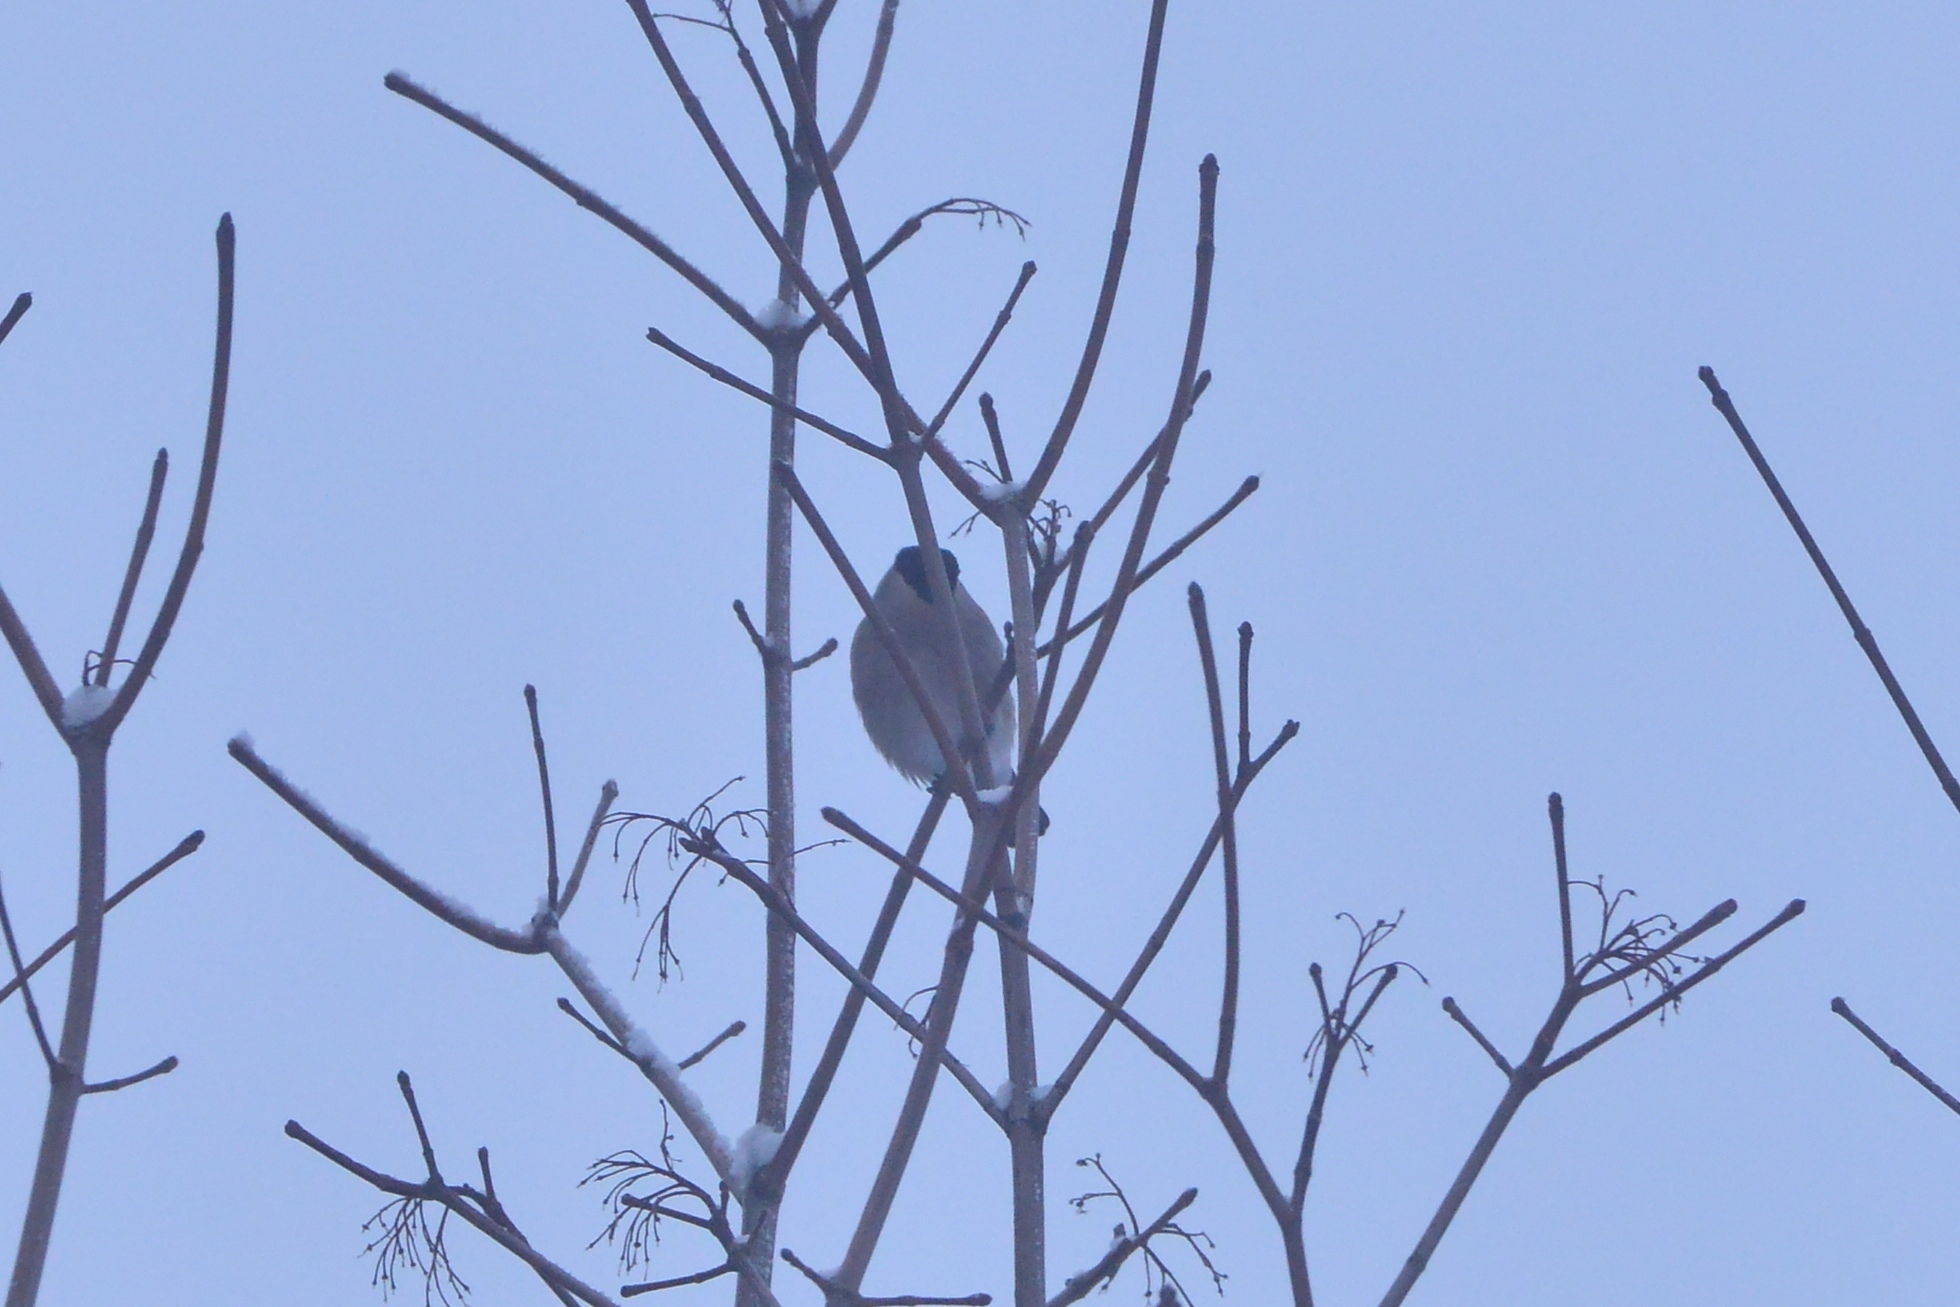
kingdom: Animalia
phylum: Chordata
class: Aves
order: Passeriformes
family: Fringillidae
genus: Pyrrhula
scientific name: Pyrrhula pyrrhula
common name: Eurasian bullfinch
